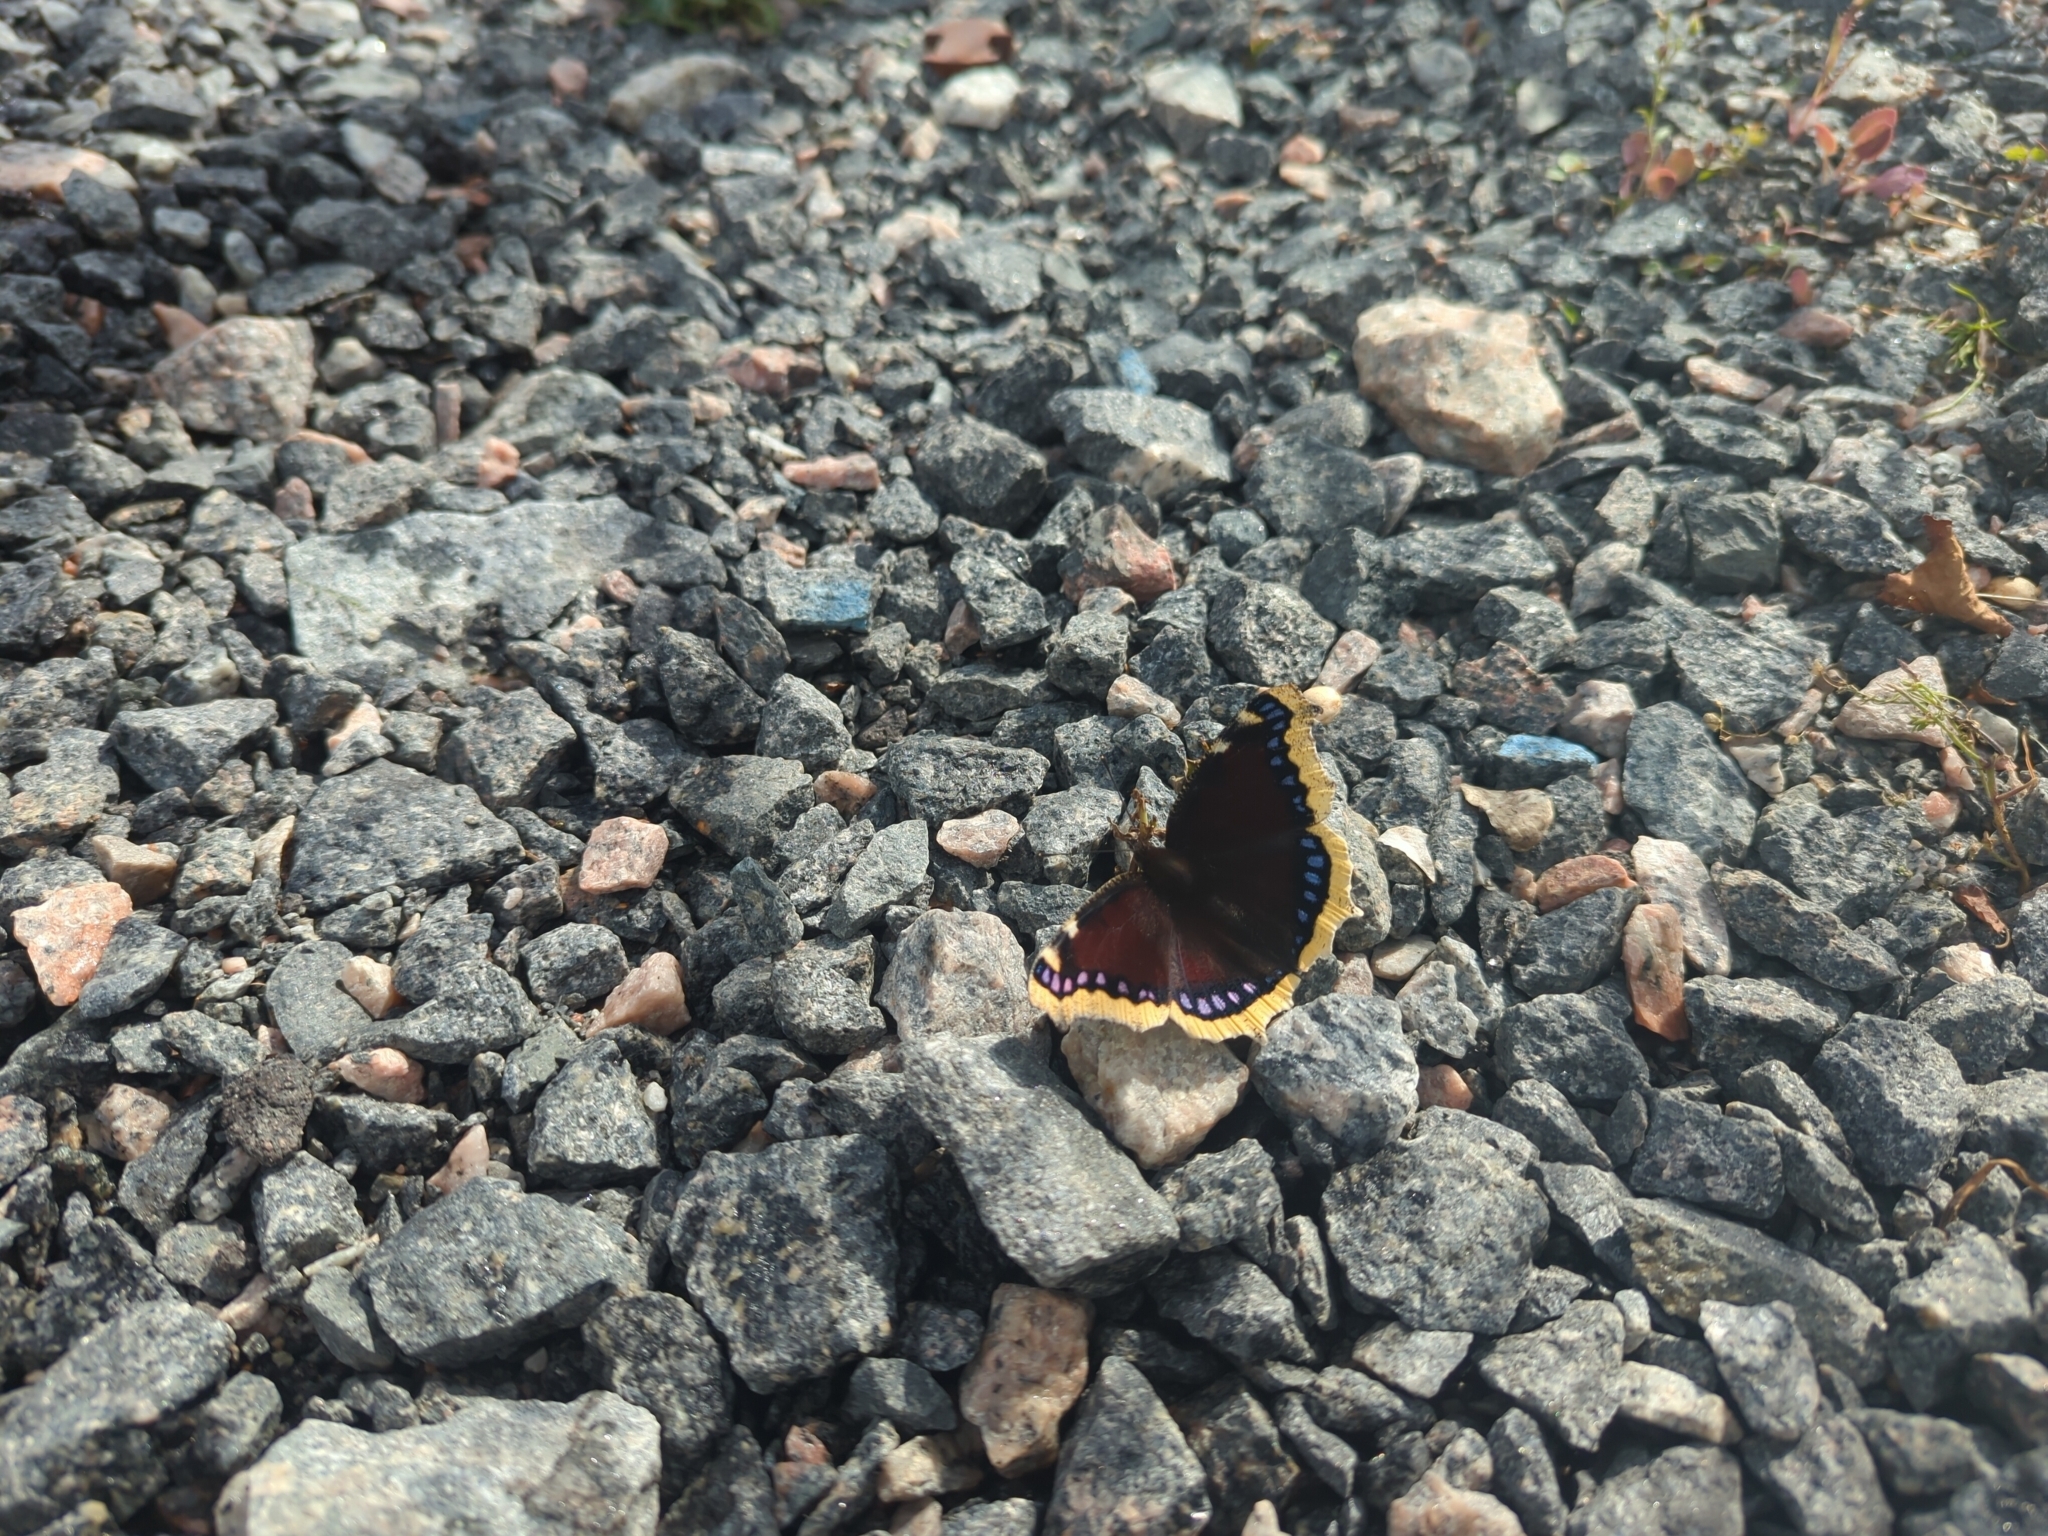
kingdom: Animalia
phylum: Arthropoda
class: Insecta
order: Lepidoptera
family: Nymphalidae
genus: Nymphalis
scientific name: Nymphalis antiopa
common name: Camberwell beauty
